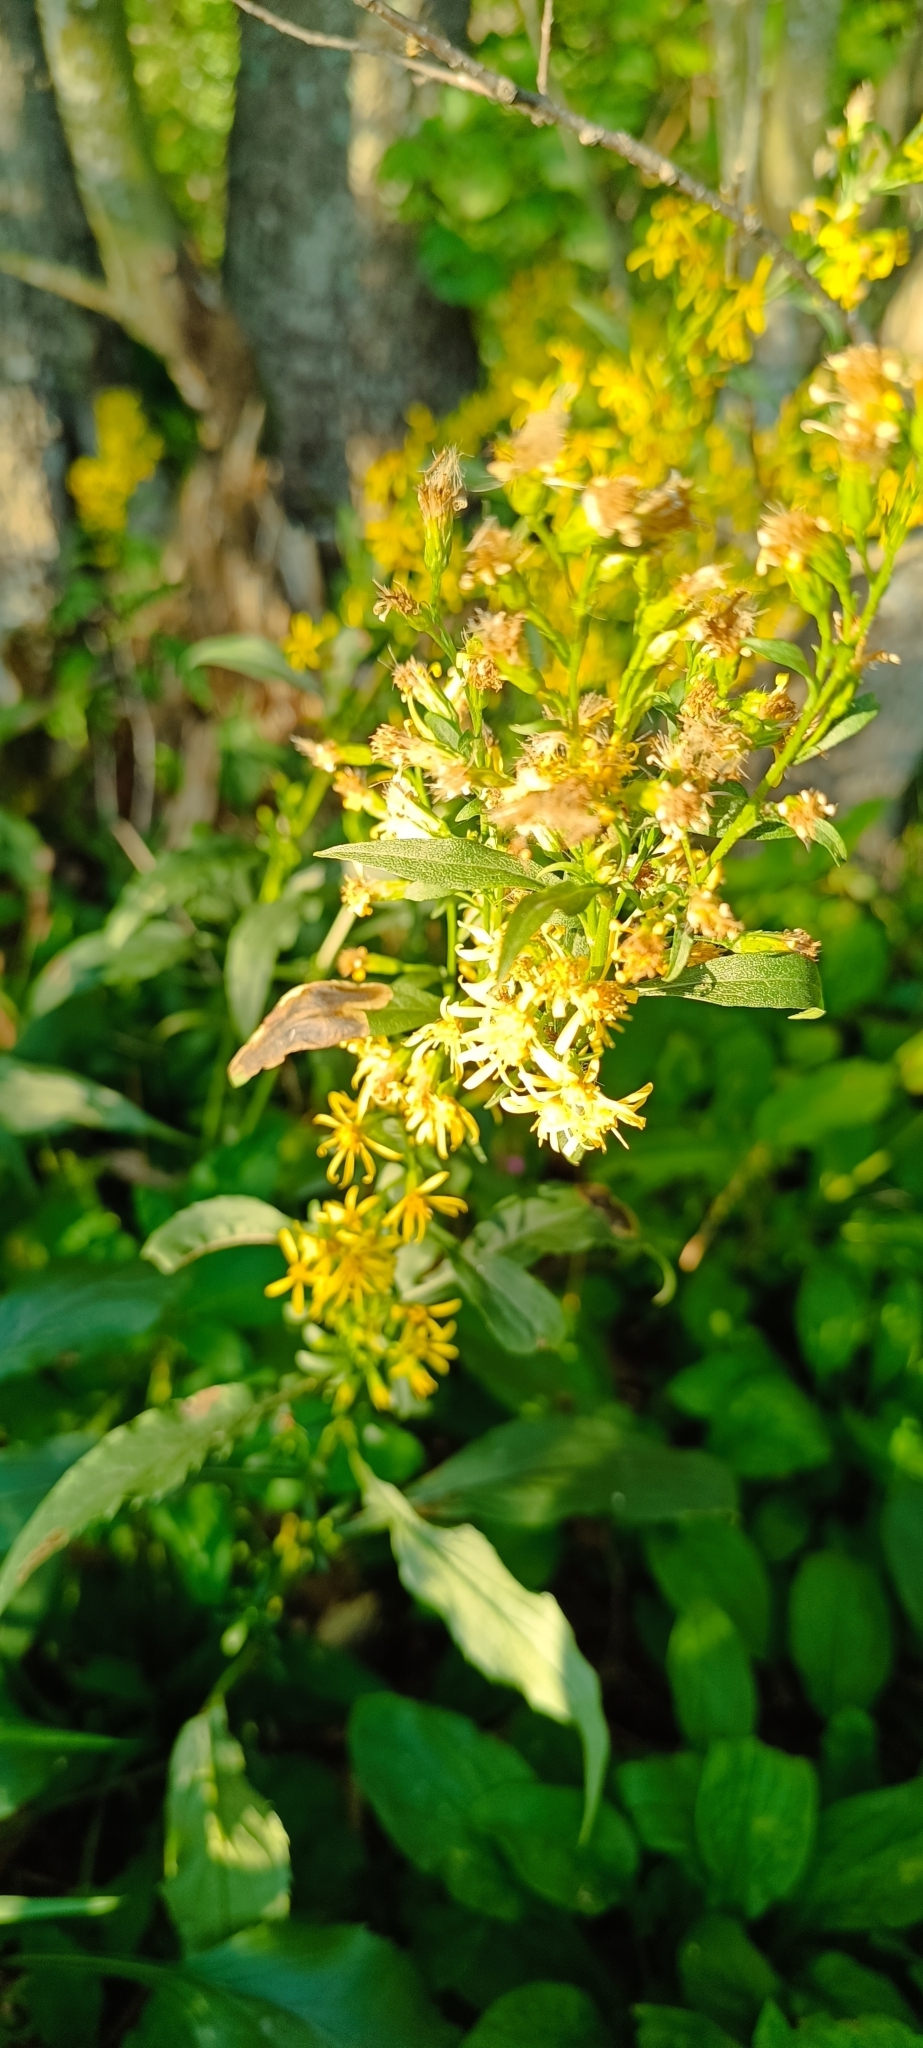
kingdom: Plantae
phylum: Tracheophyta
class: Magnoliopsida
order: Asterales
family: Asteraceae
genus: Solidago
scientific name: Solidago virgaurea
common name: Goldenrod
